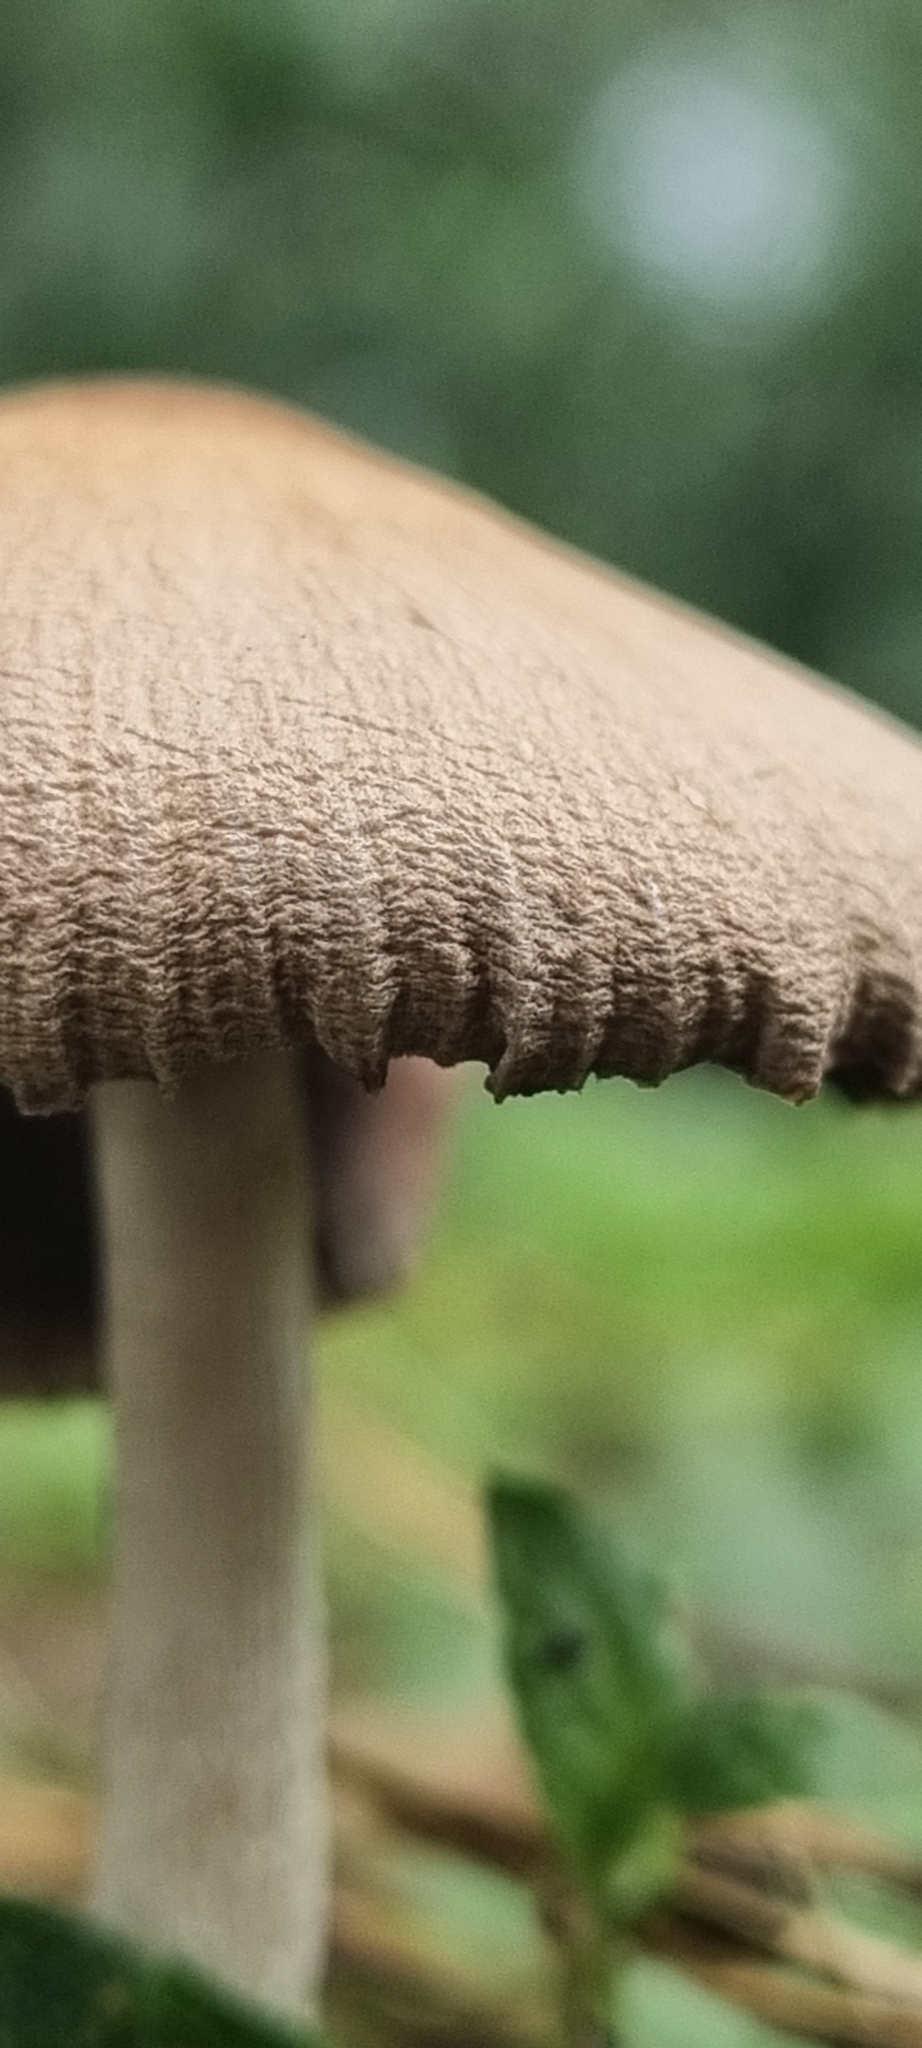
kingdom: Fungi
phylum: Basidiomycota
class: Agaricomycetes
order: Agaricales
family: Psathyrellaceae
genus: Coprinellus
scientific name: Coprinellus radians
